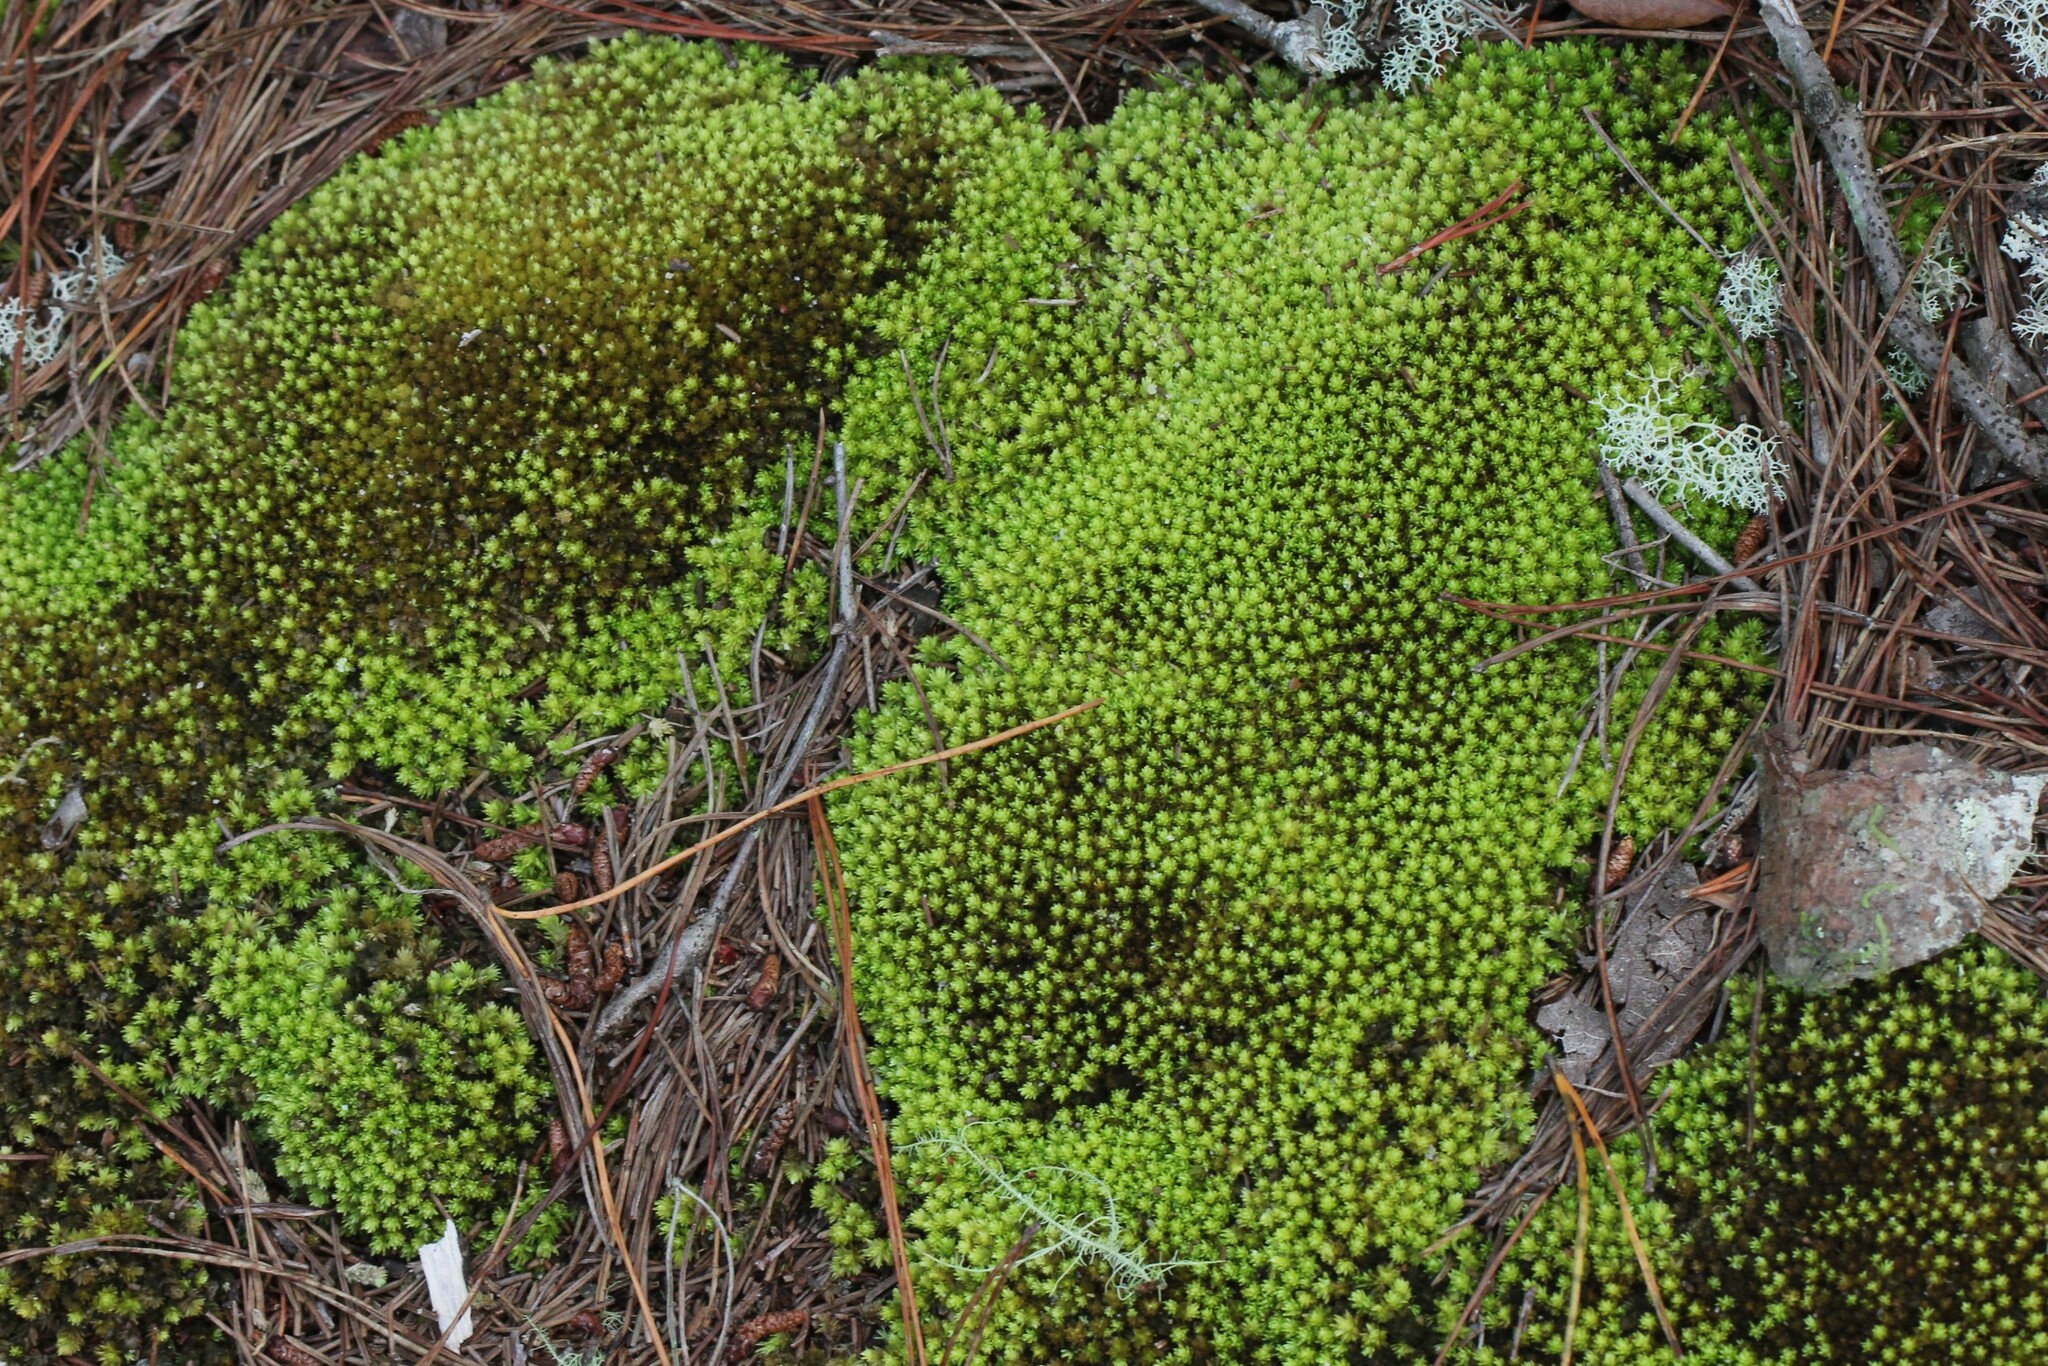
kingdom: Plantae
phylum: Bryophyta
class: Bryopsida
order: Dicranales
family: Leucobryaceae
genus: Leucobryum
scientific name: Leucobryum albidum
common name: White moss
